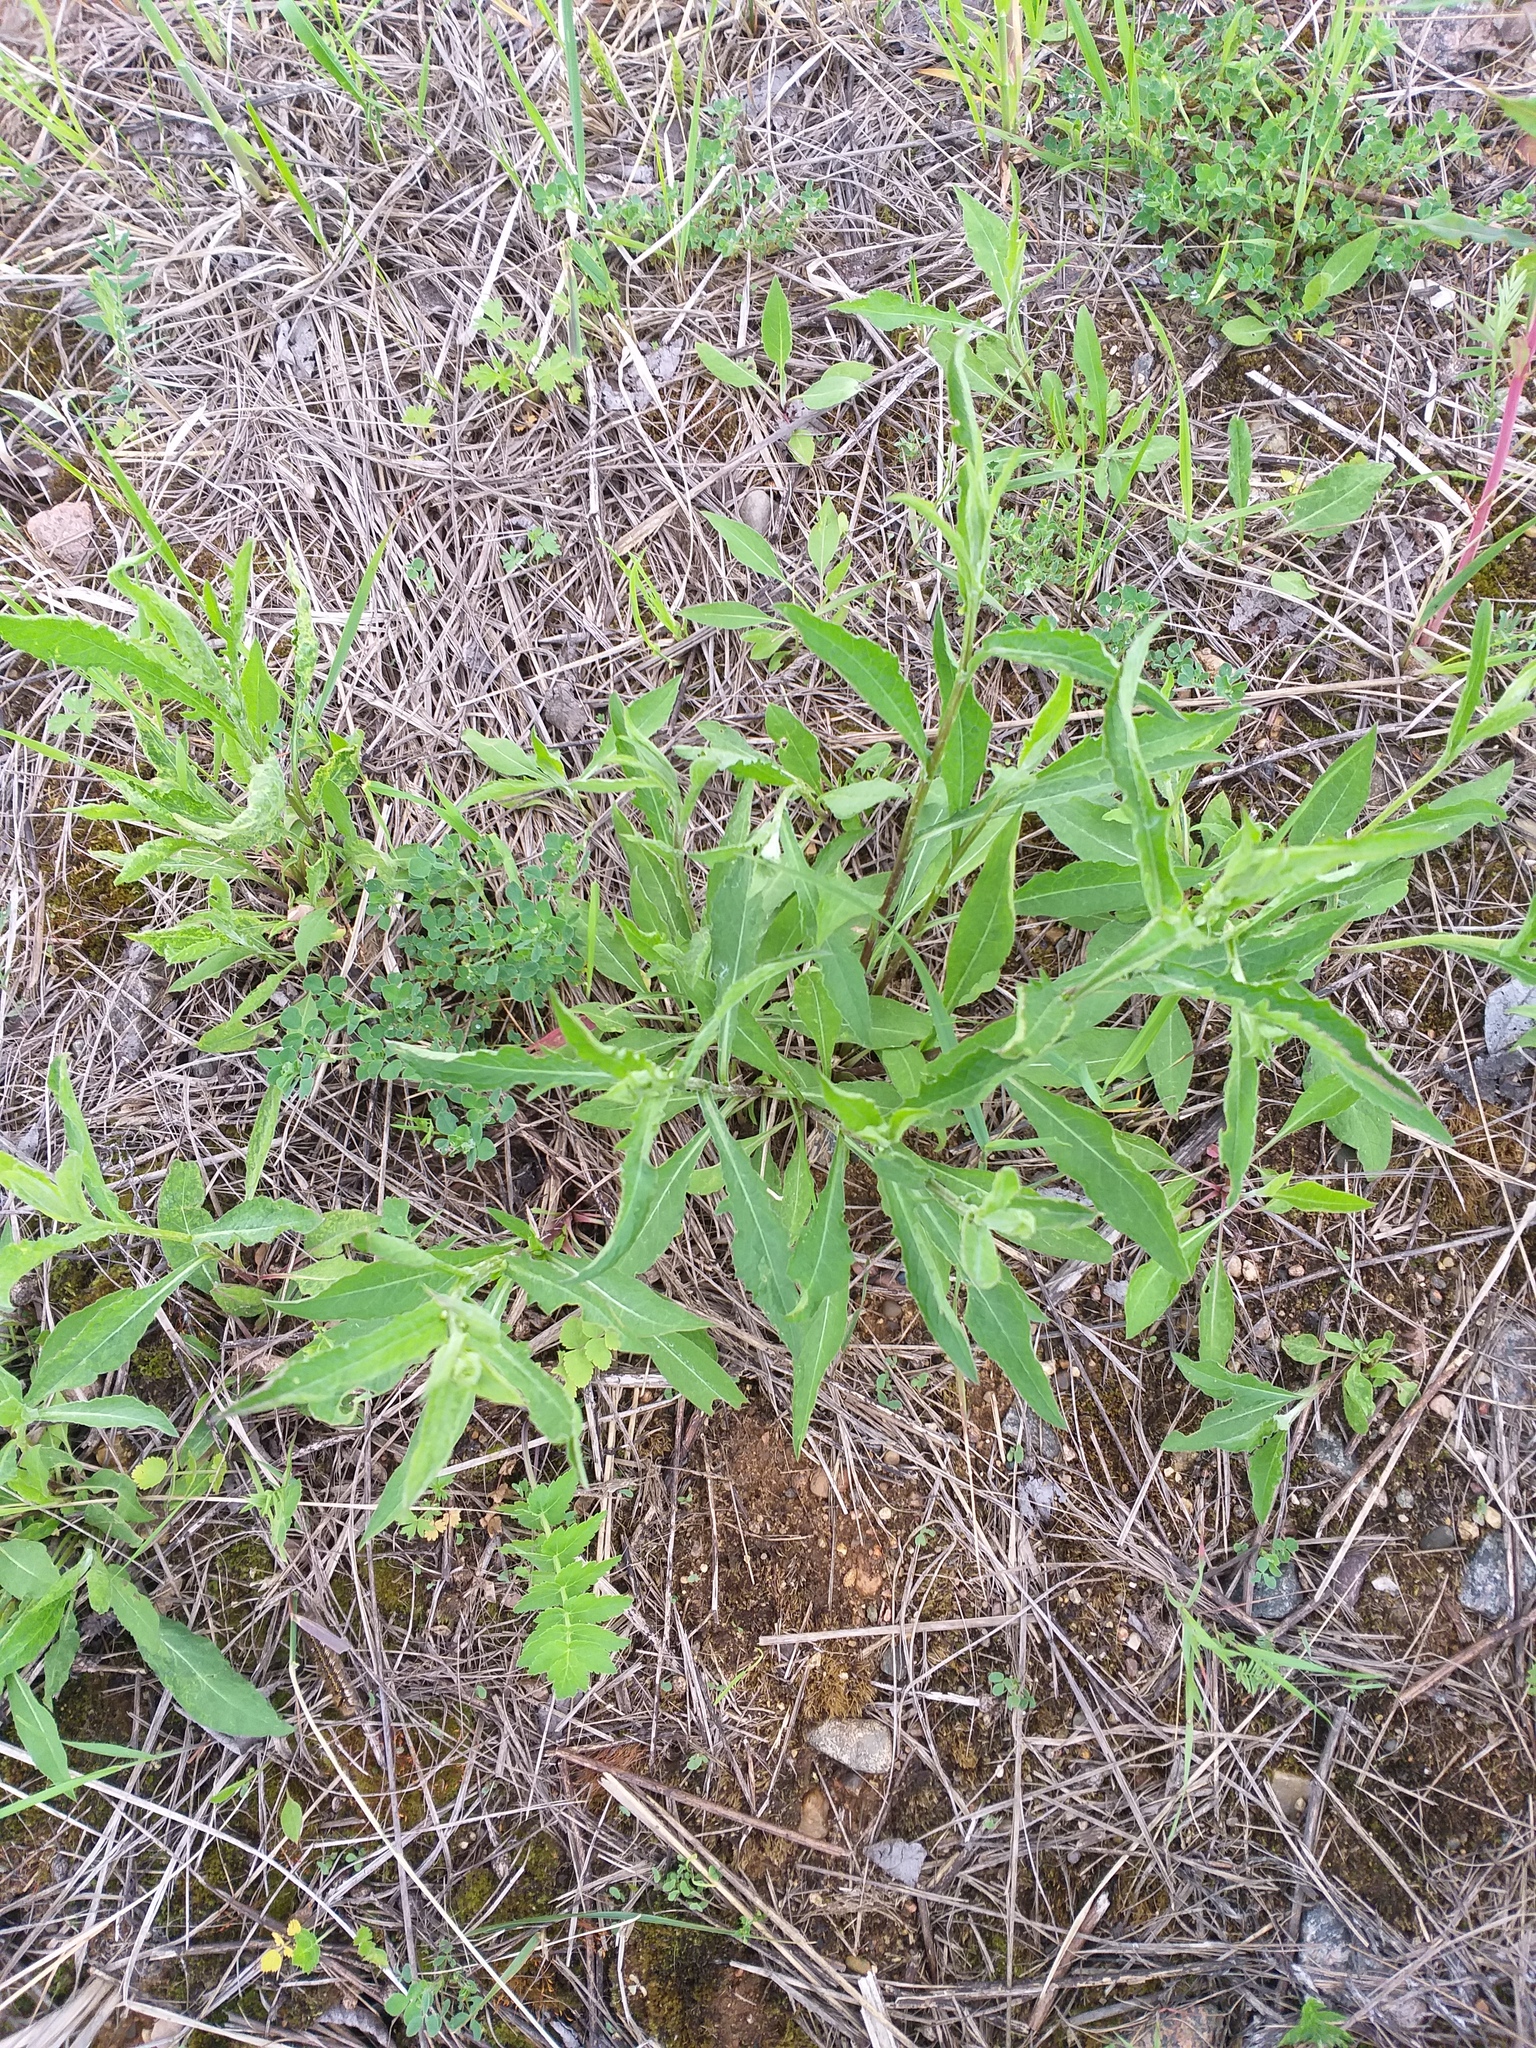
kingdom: Plantae
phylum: Tracheophyta
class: Magnoliopsida
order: Asterales
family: Asteraceae
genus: Centaurea
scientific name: Centaurea jacea
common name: Brown knapweed
